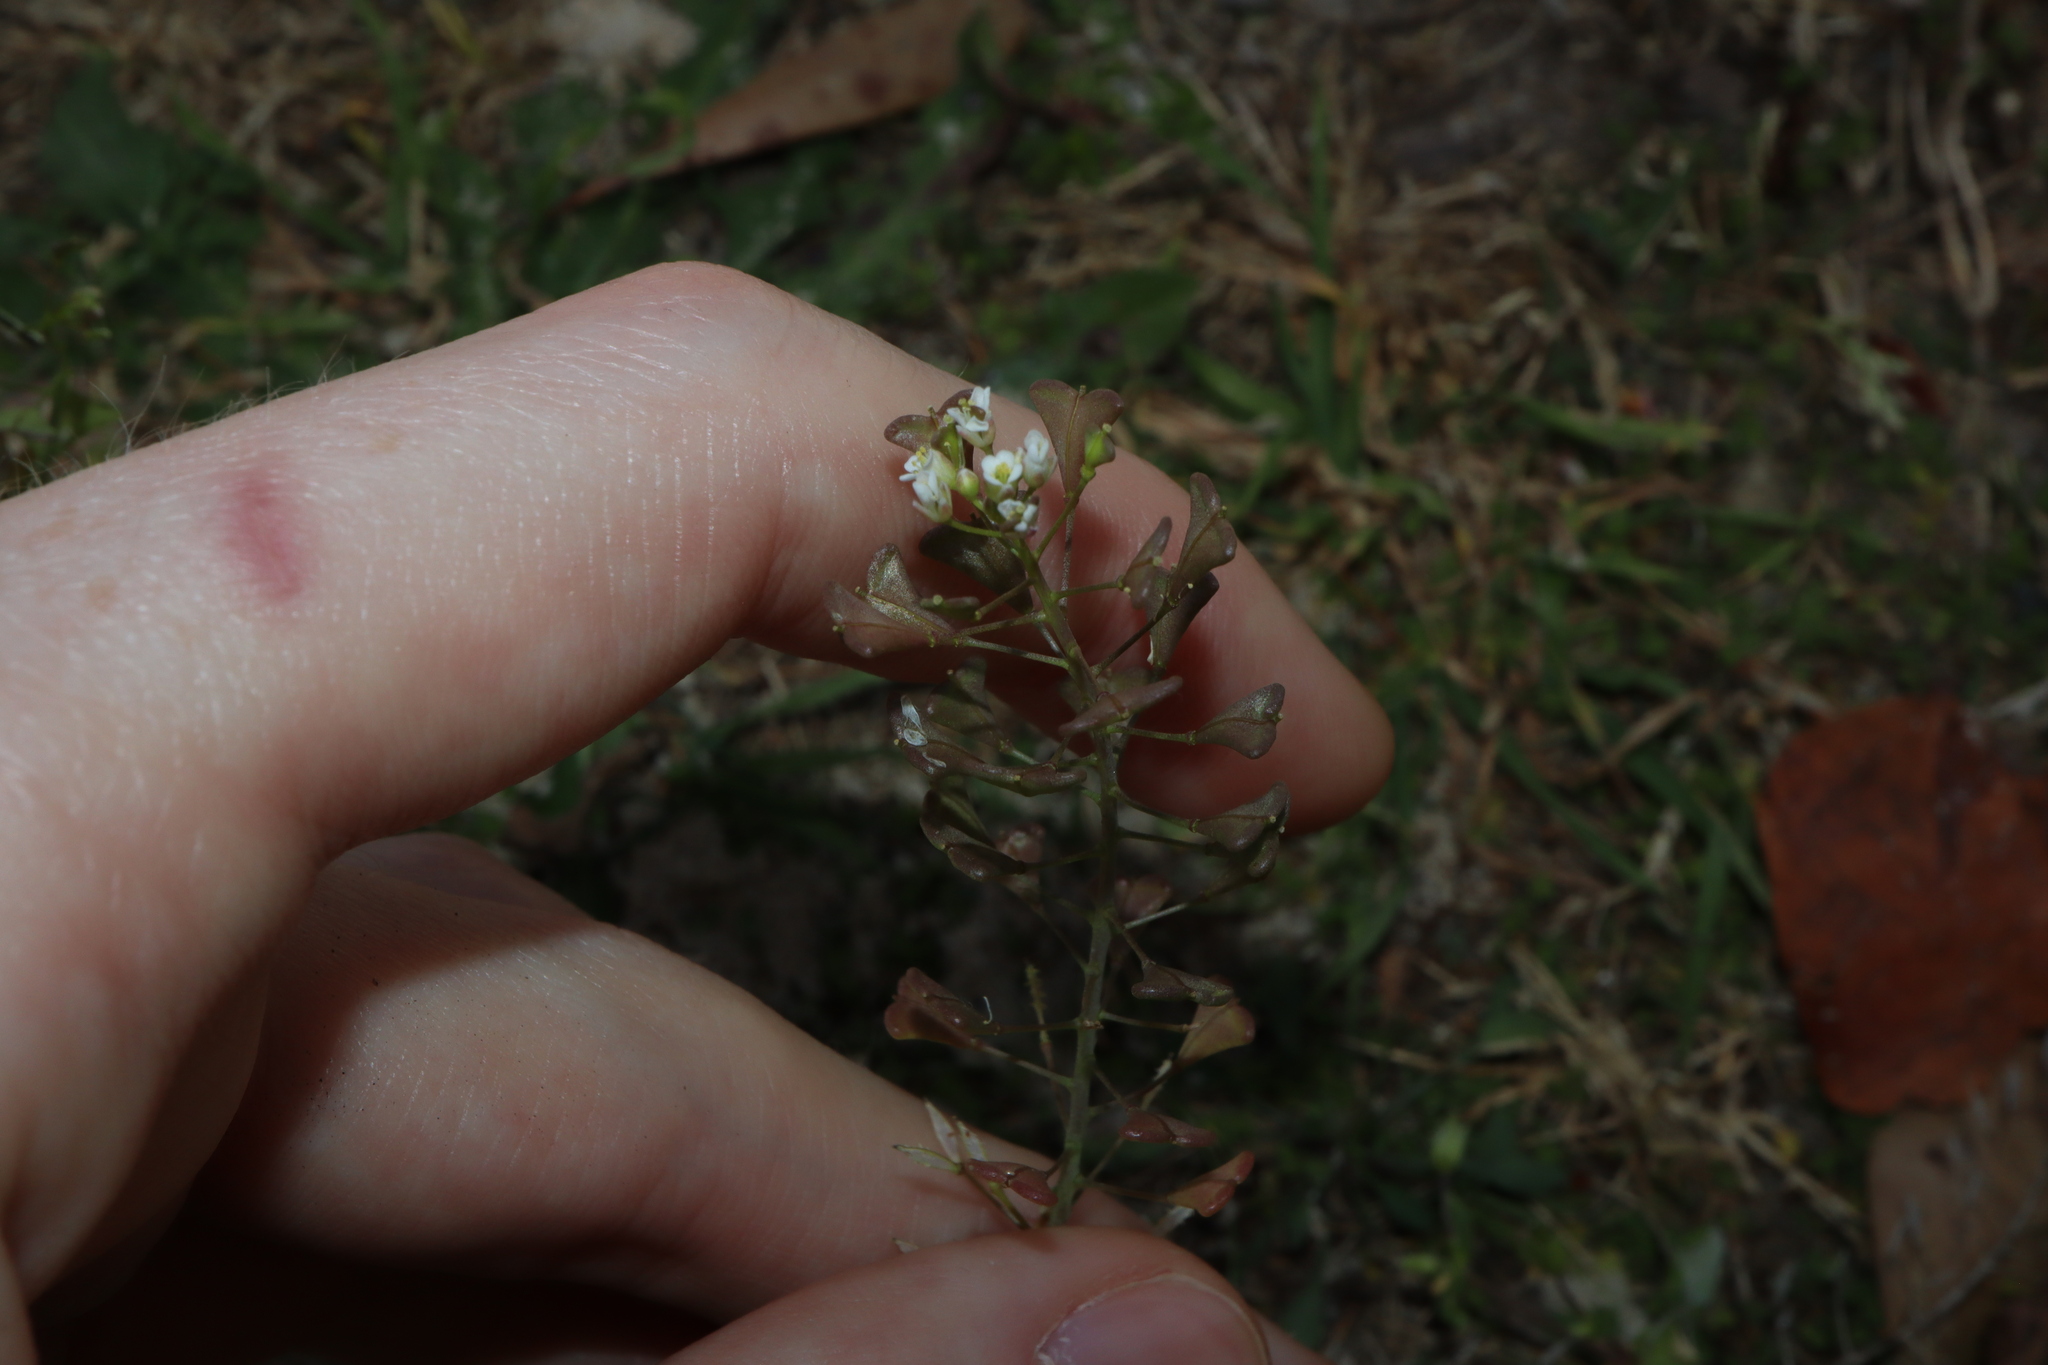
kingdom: Plantae
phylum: Tracheophyta
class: Magnoliopsida
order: Brassicales
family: Brassicaceae
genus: Capsella
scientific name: Capsella bursa-pastoris
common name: Shepherd's purse
